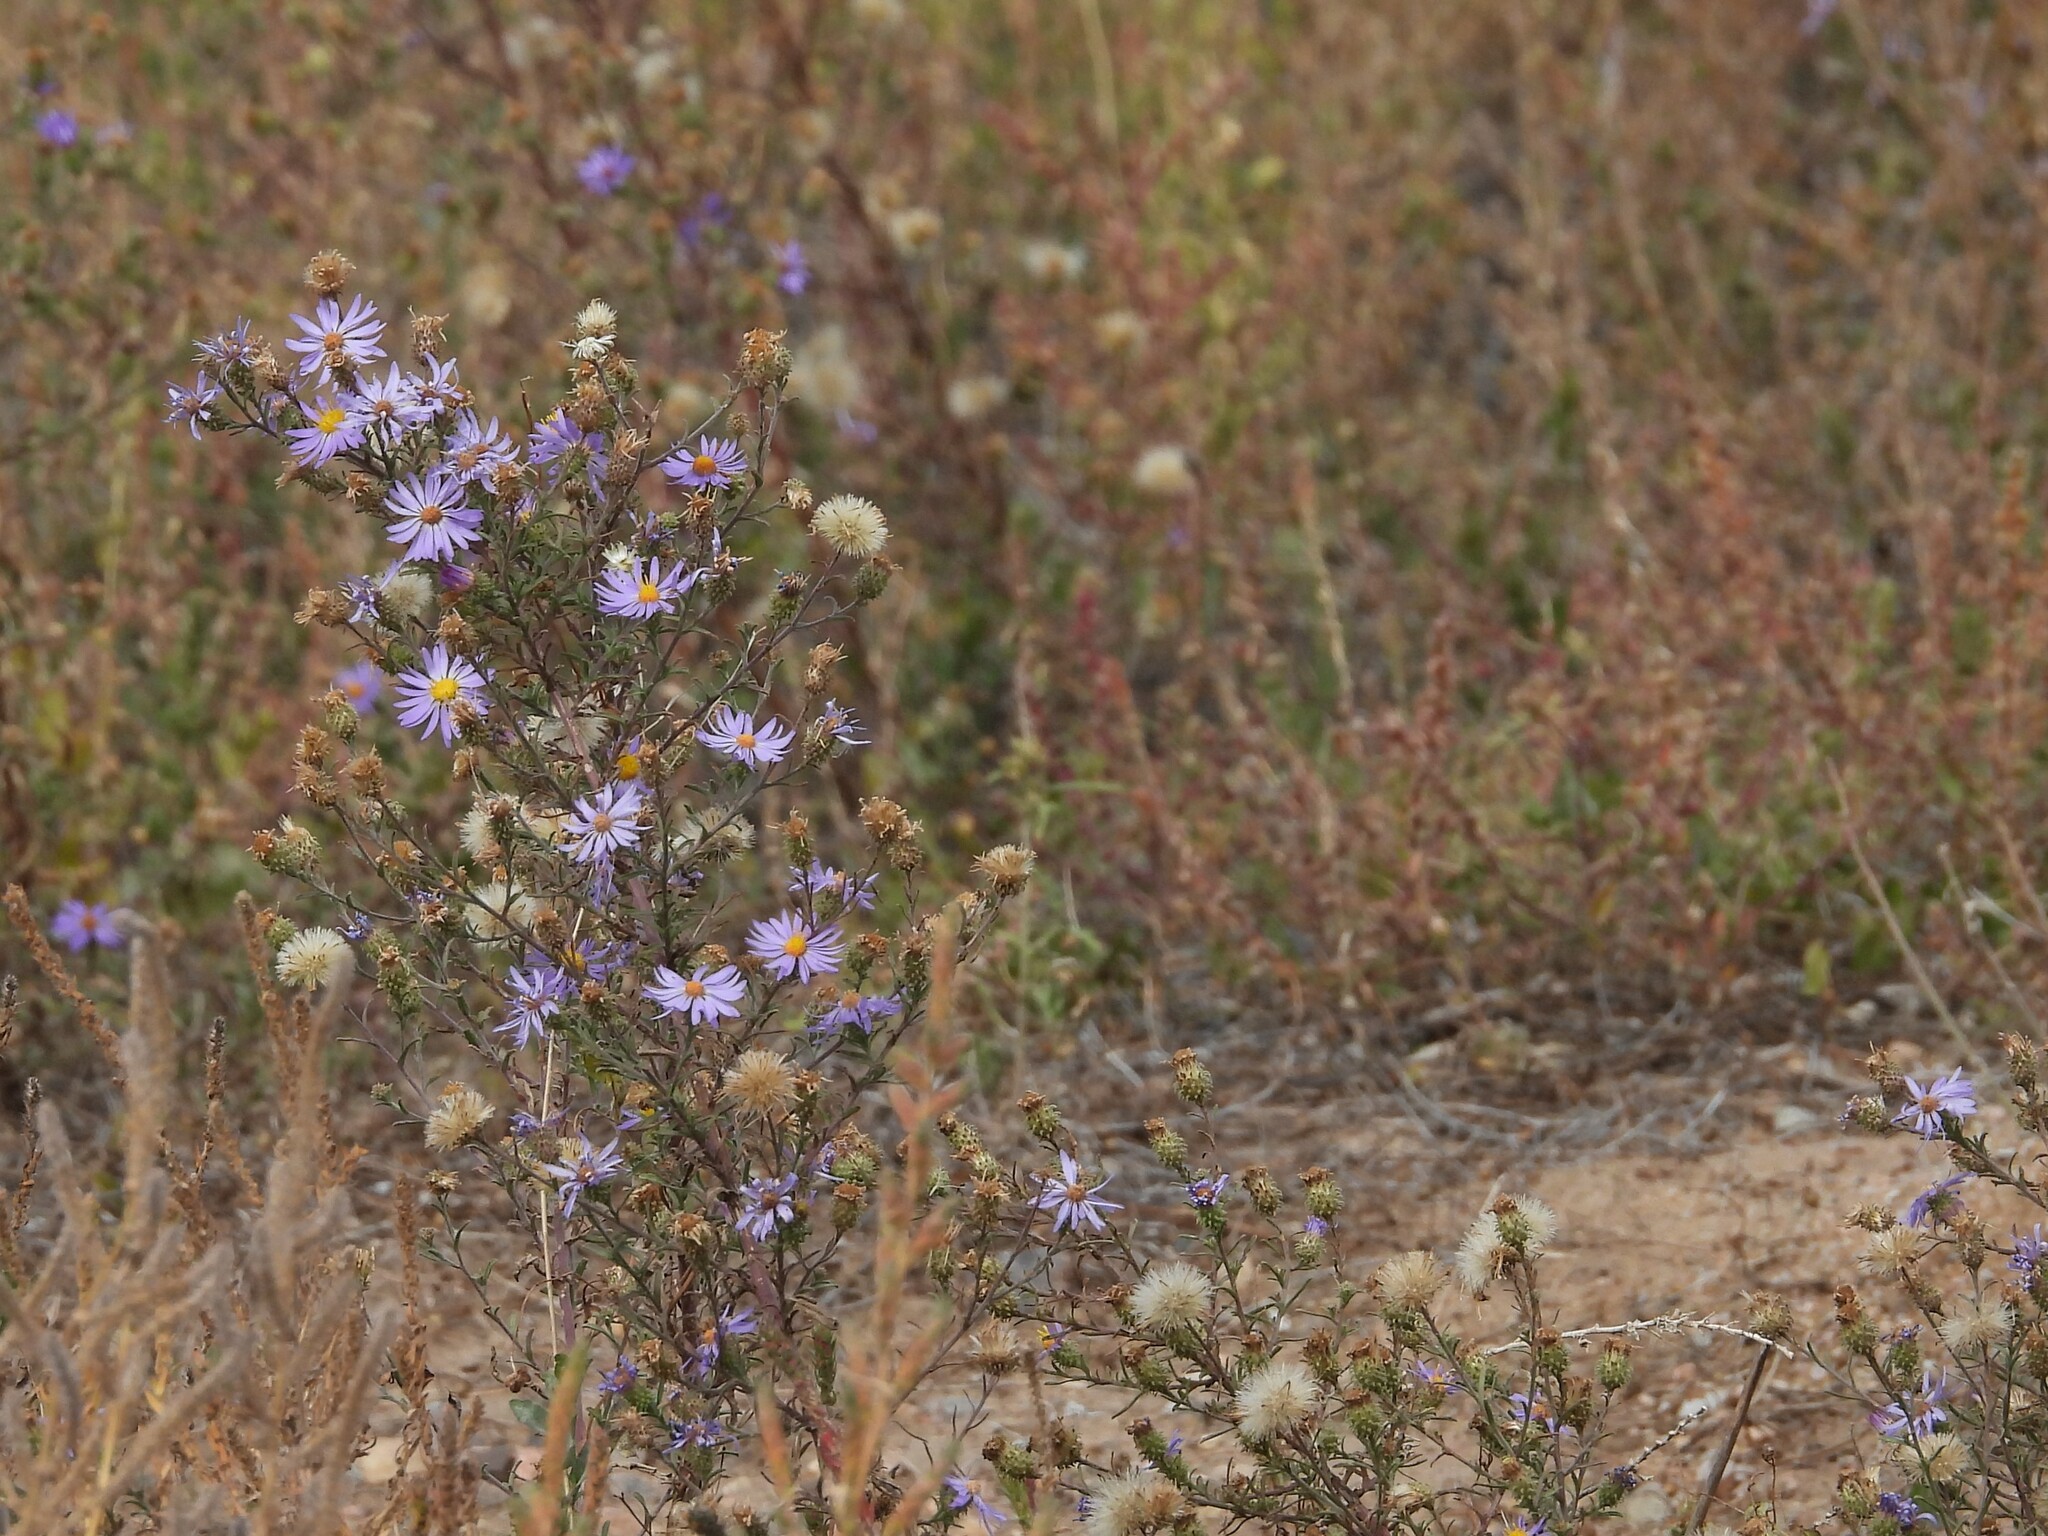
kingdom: Plantae
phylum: Tracheophyta
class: Magnoliopsida
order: Asterales
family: Asteraceae
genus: Dieteria
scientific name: Dieteria canescens
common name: Hoary-aster
